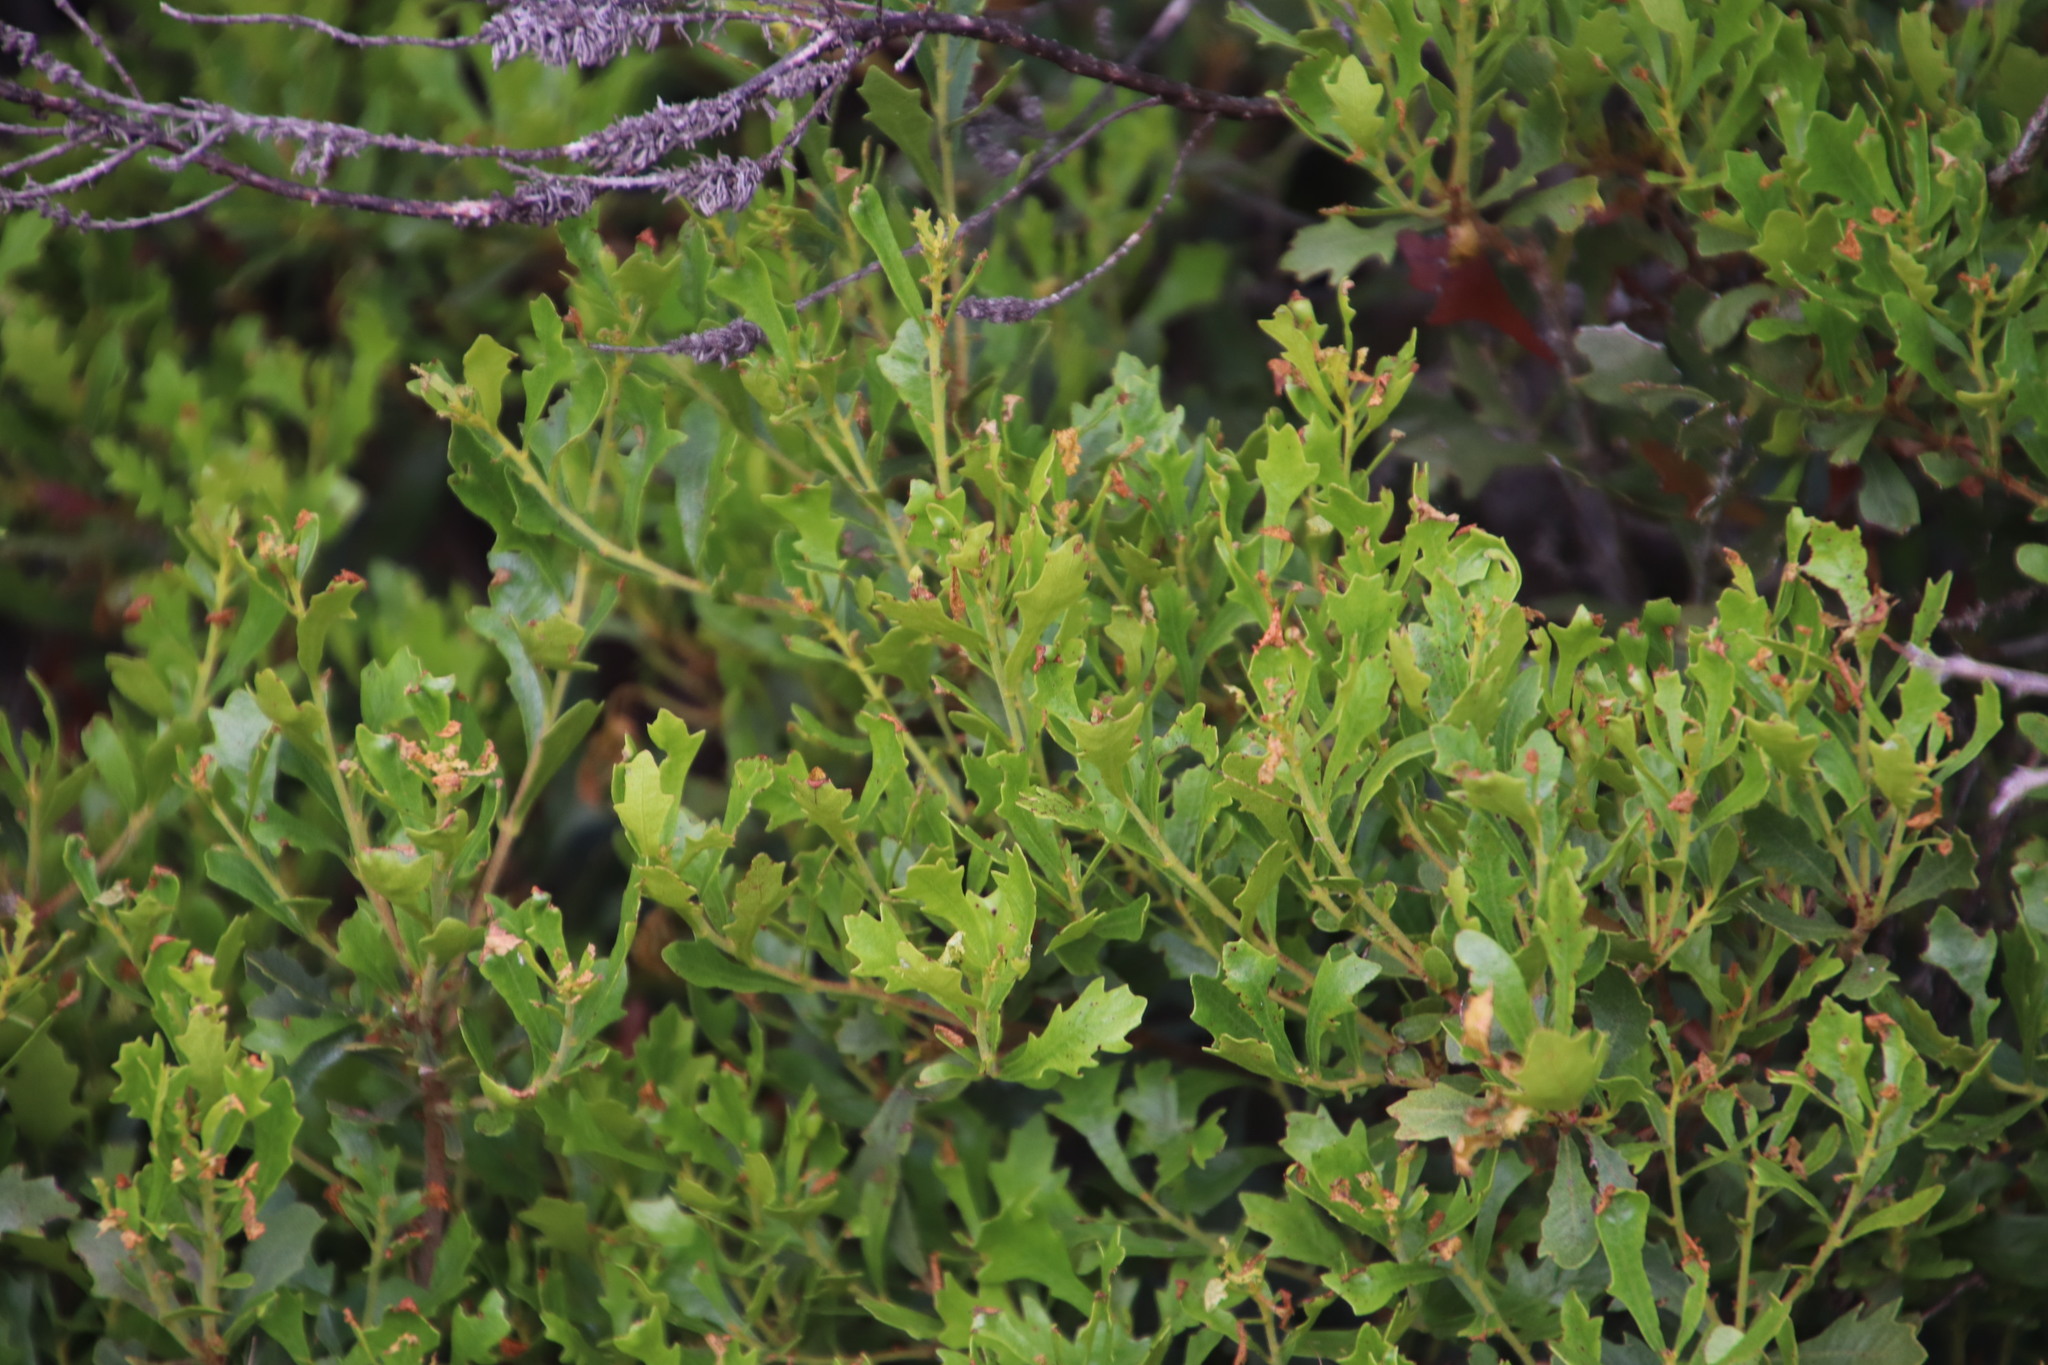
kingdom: Plantae
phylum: Tracheophyta
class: Magnoliopsida
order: Fagales
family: Myricaceae
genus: Morella
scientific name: Morella quercifolia
